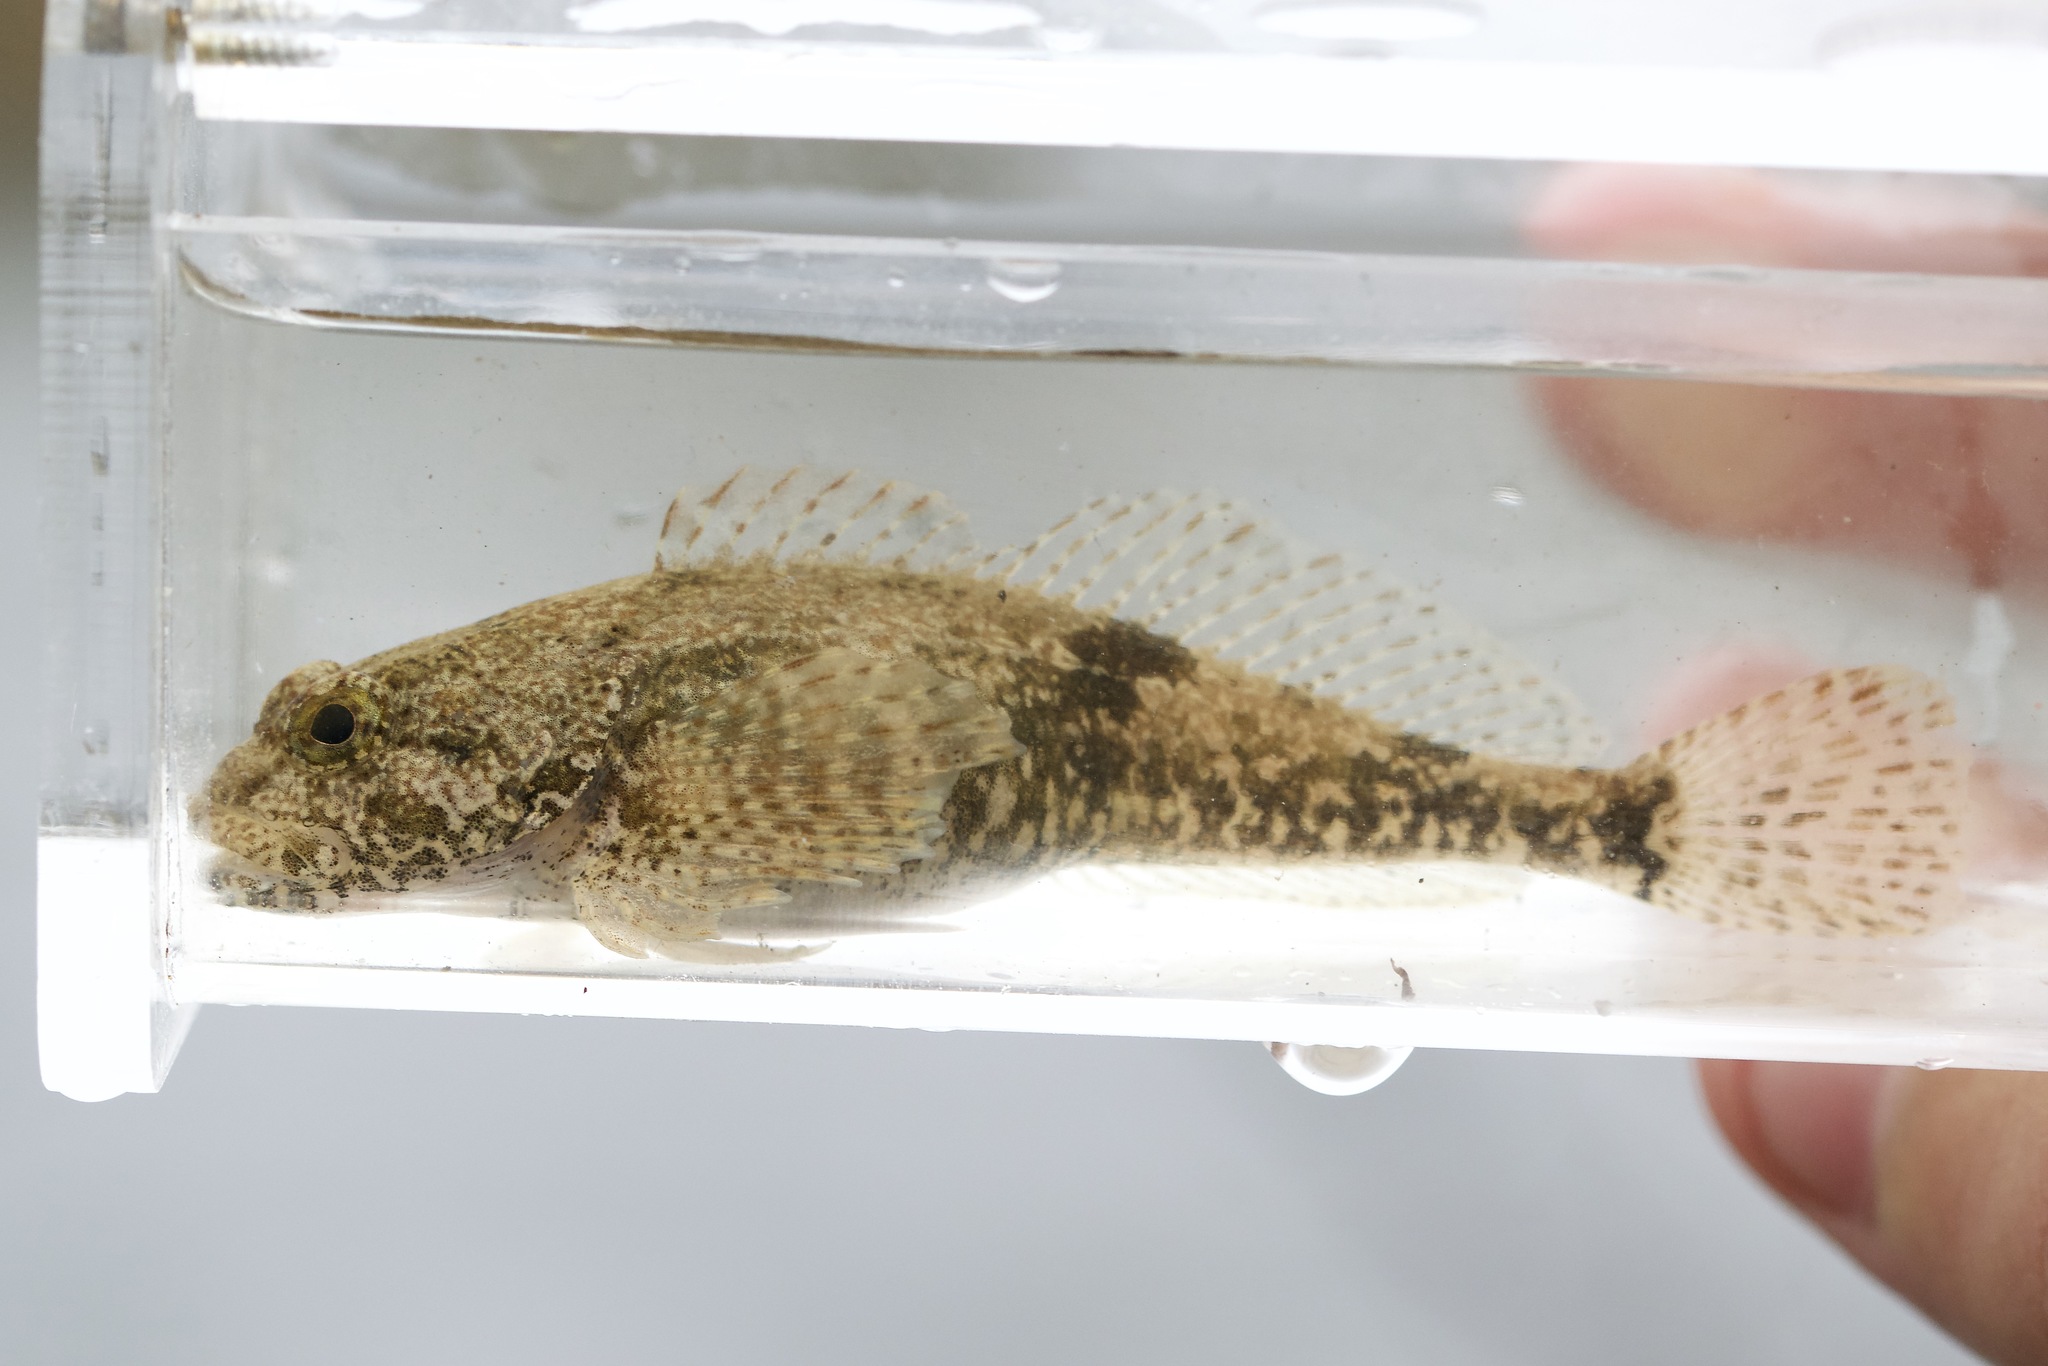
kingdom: Animalia
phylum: Chordata
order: Scorpaeniformes
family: Cottidae
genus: Cottus
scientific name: Cottus bairdii
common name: Mottled sculpin
